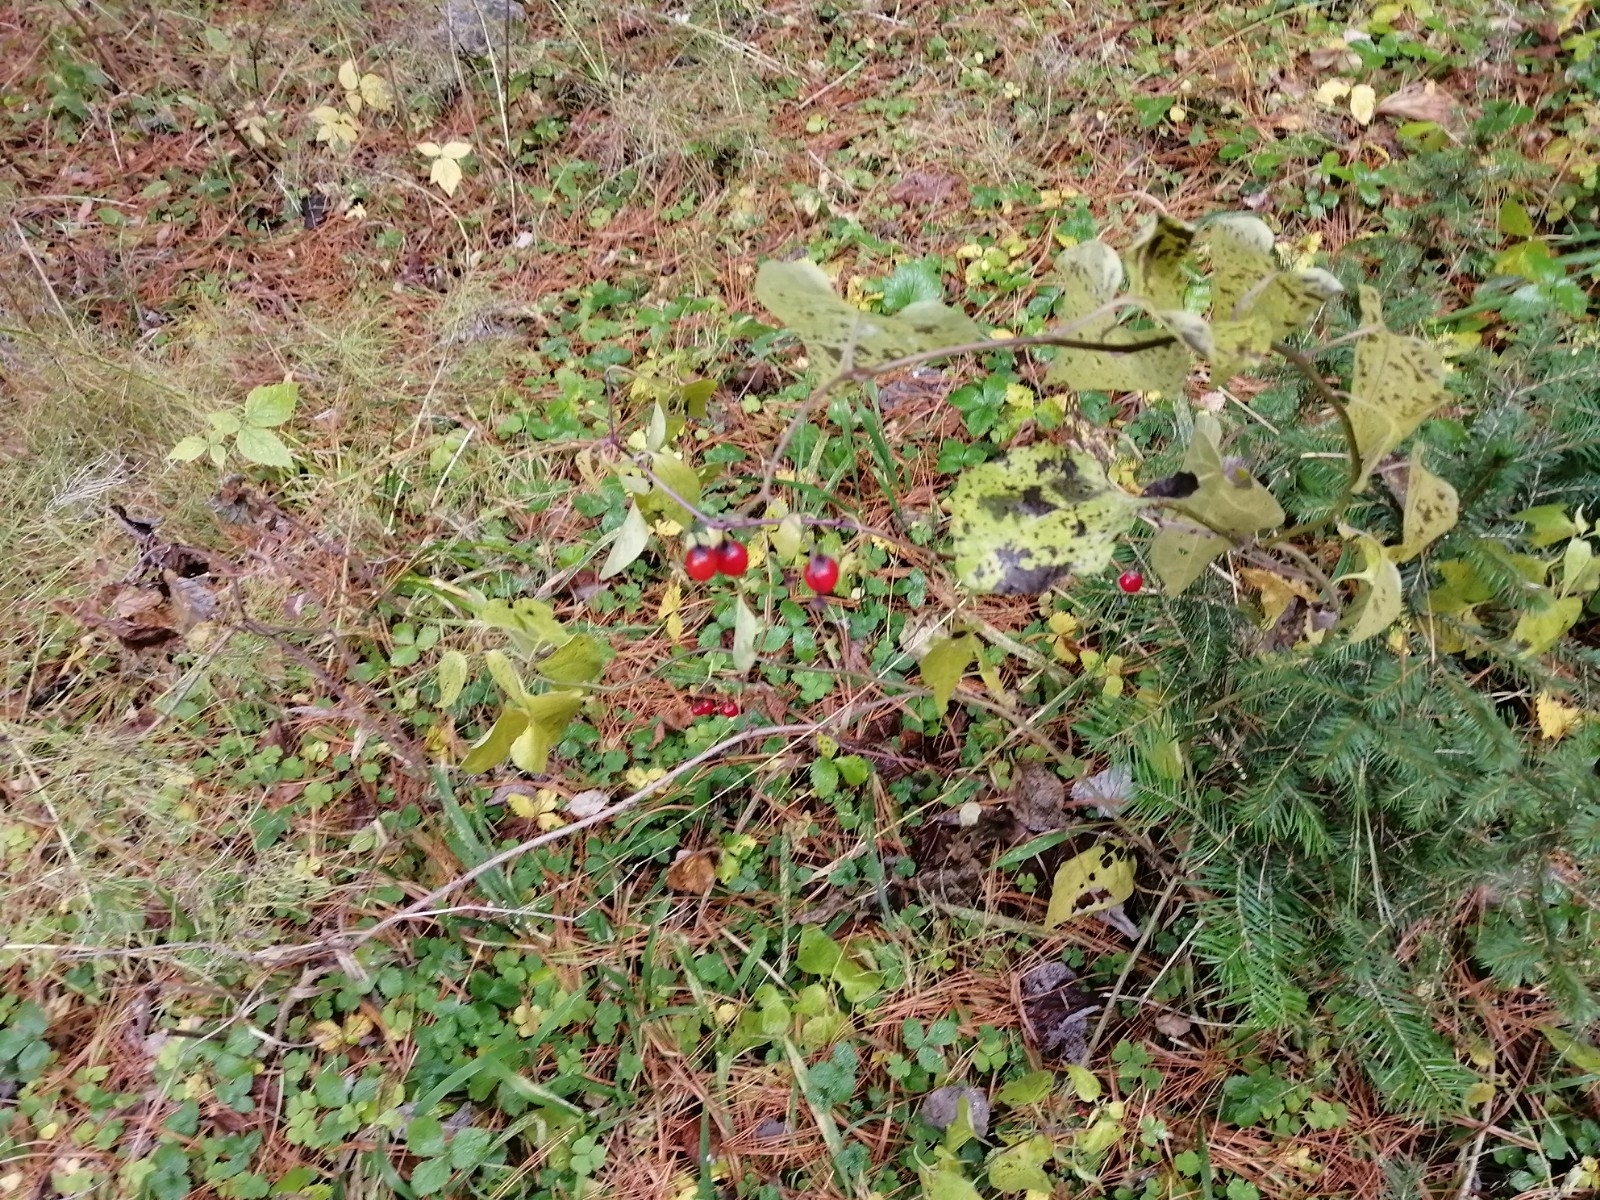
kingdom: Plantae
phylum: Tracheophyta
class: Magnoliopsida
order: Solanales
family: Solanaceae
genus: Solanum
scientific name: Solanum dulcamara
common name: Climbing nightshade
